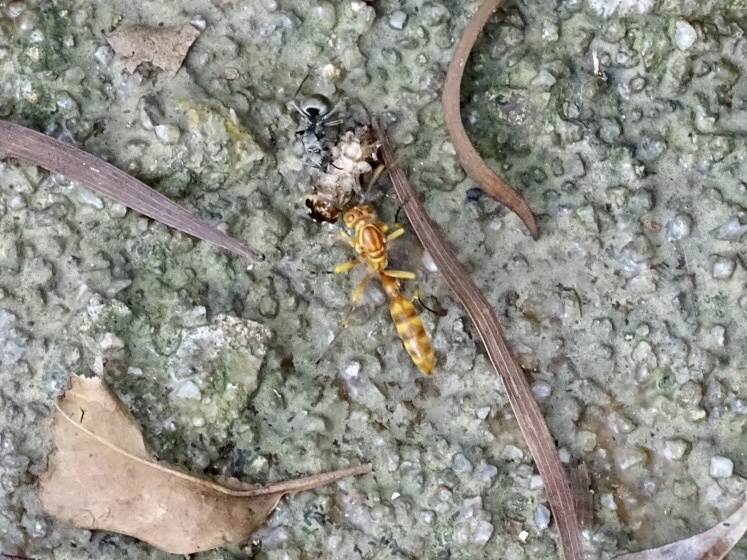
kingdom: Animalia
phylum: Arthropoda
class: Insecta
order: Hymenoptera
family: Vespidae
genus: Parapolybia
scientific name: Parapolybia indica
